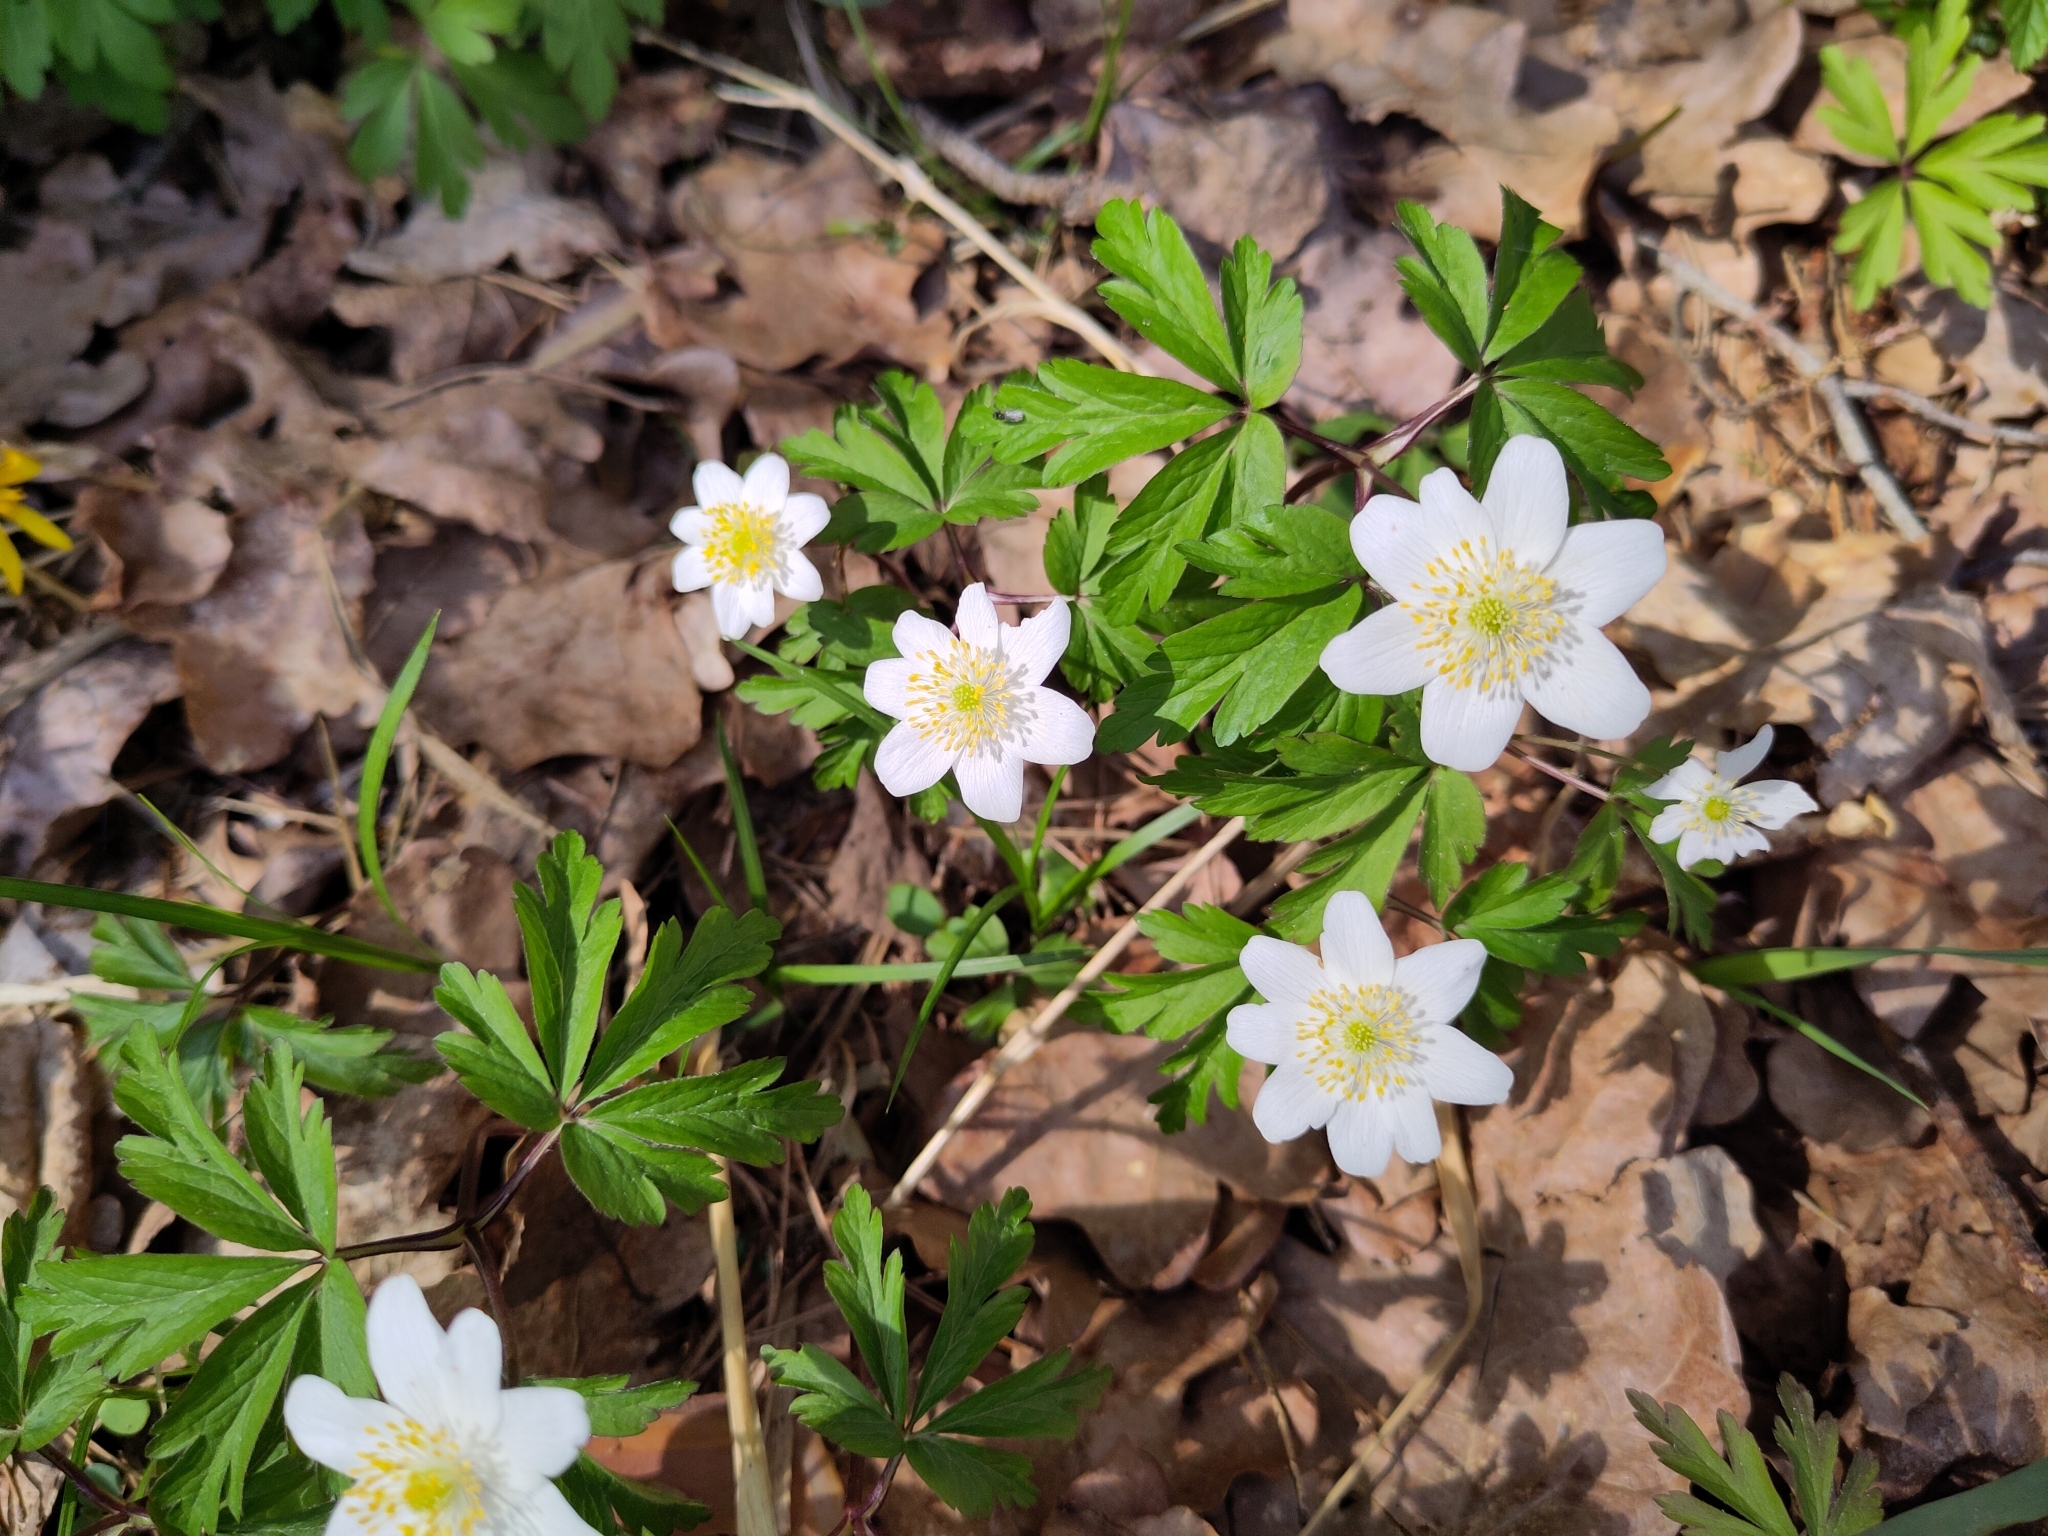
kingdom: Plantae
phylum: Tracheophyta
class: Magnoliopsida
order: Ranunculales
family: Ranunculaceae
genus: Anemone
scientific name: Anemone nemorosa
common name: Wood anemone
